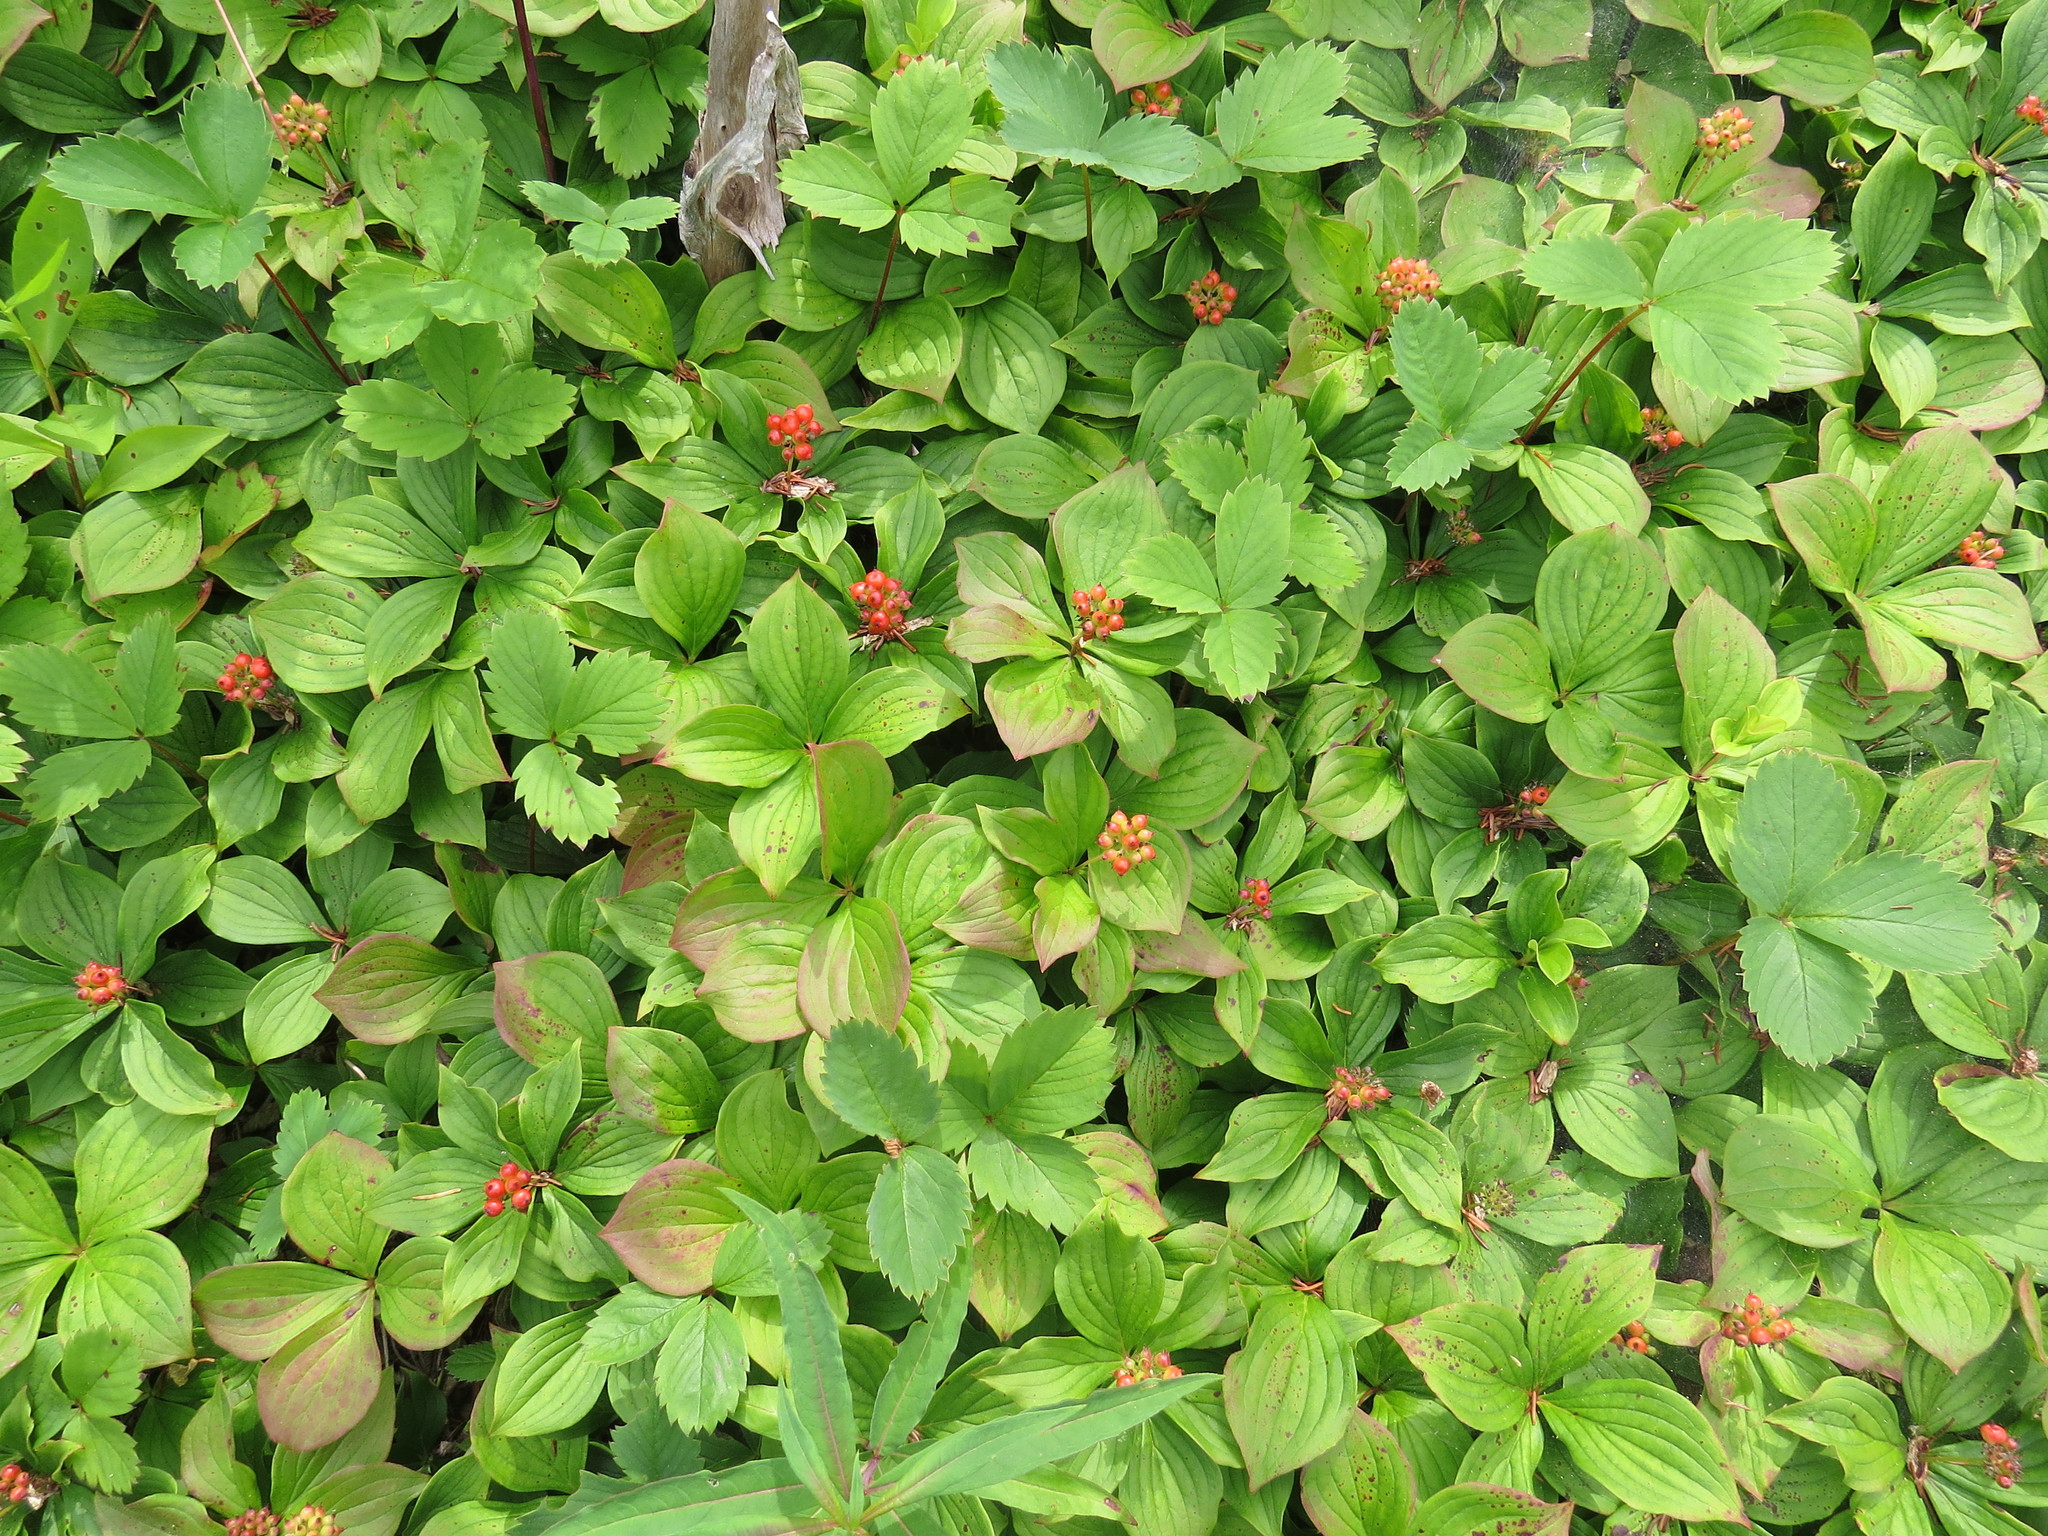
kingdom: Plantae
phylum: Tracheophyta
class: Magnoliopsida
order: Cornales
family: Cornaceae
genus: Cornus
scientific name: Cornus canadensis
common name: Creeping dogwood
